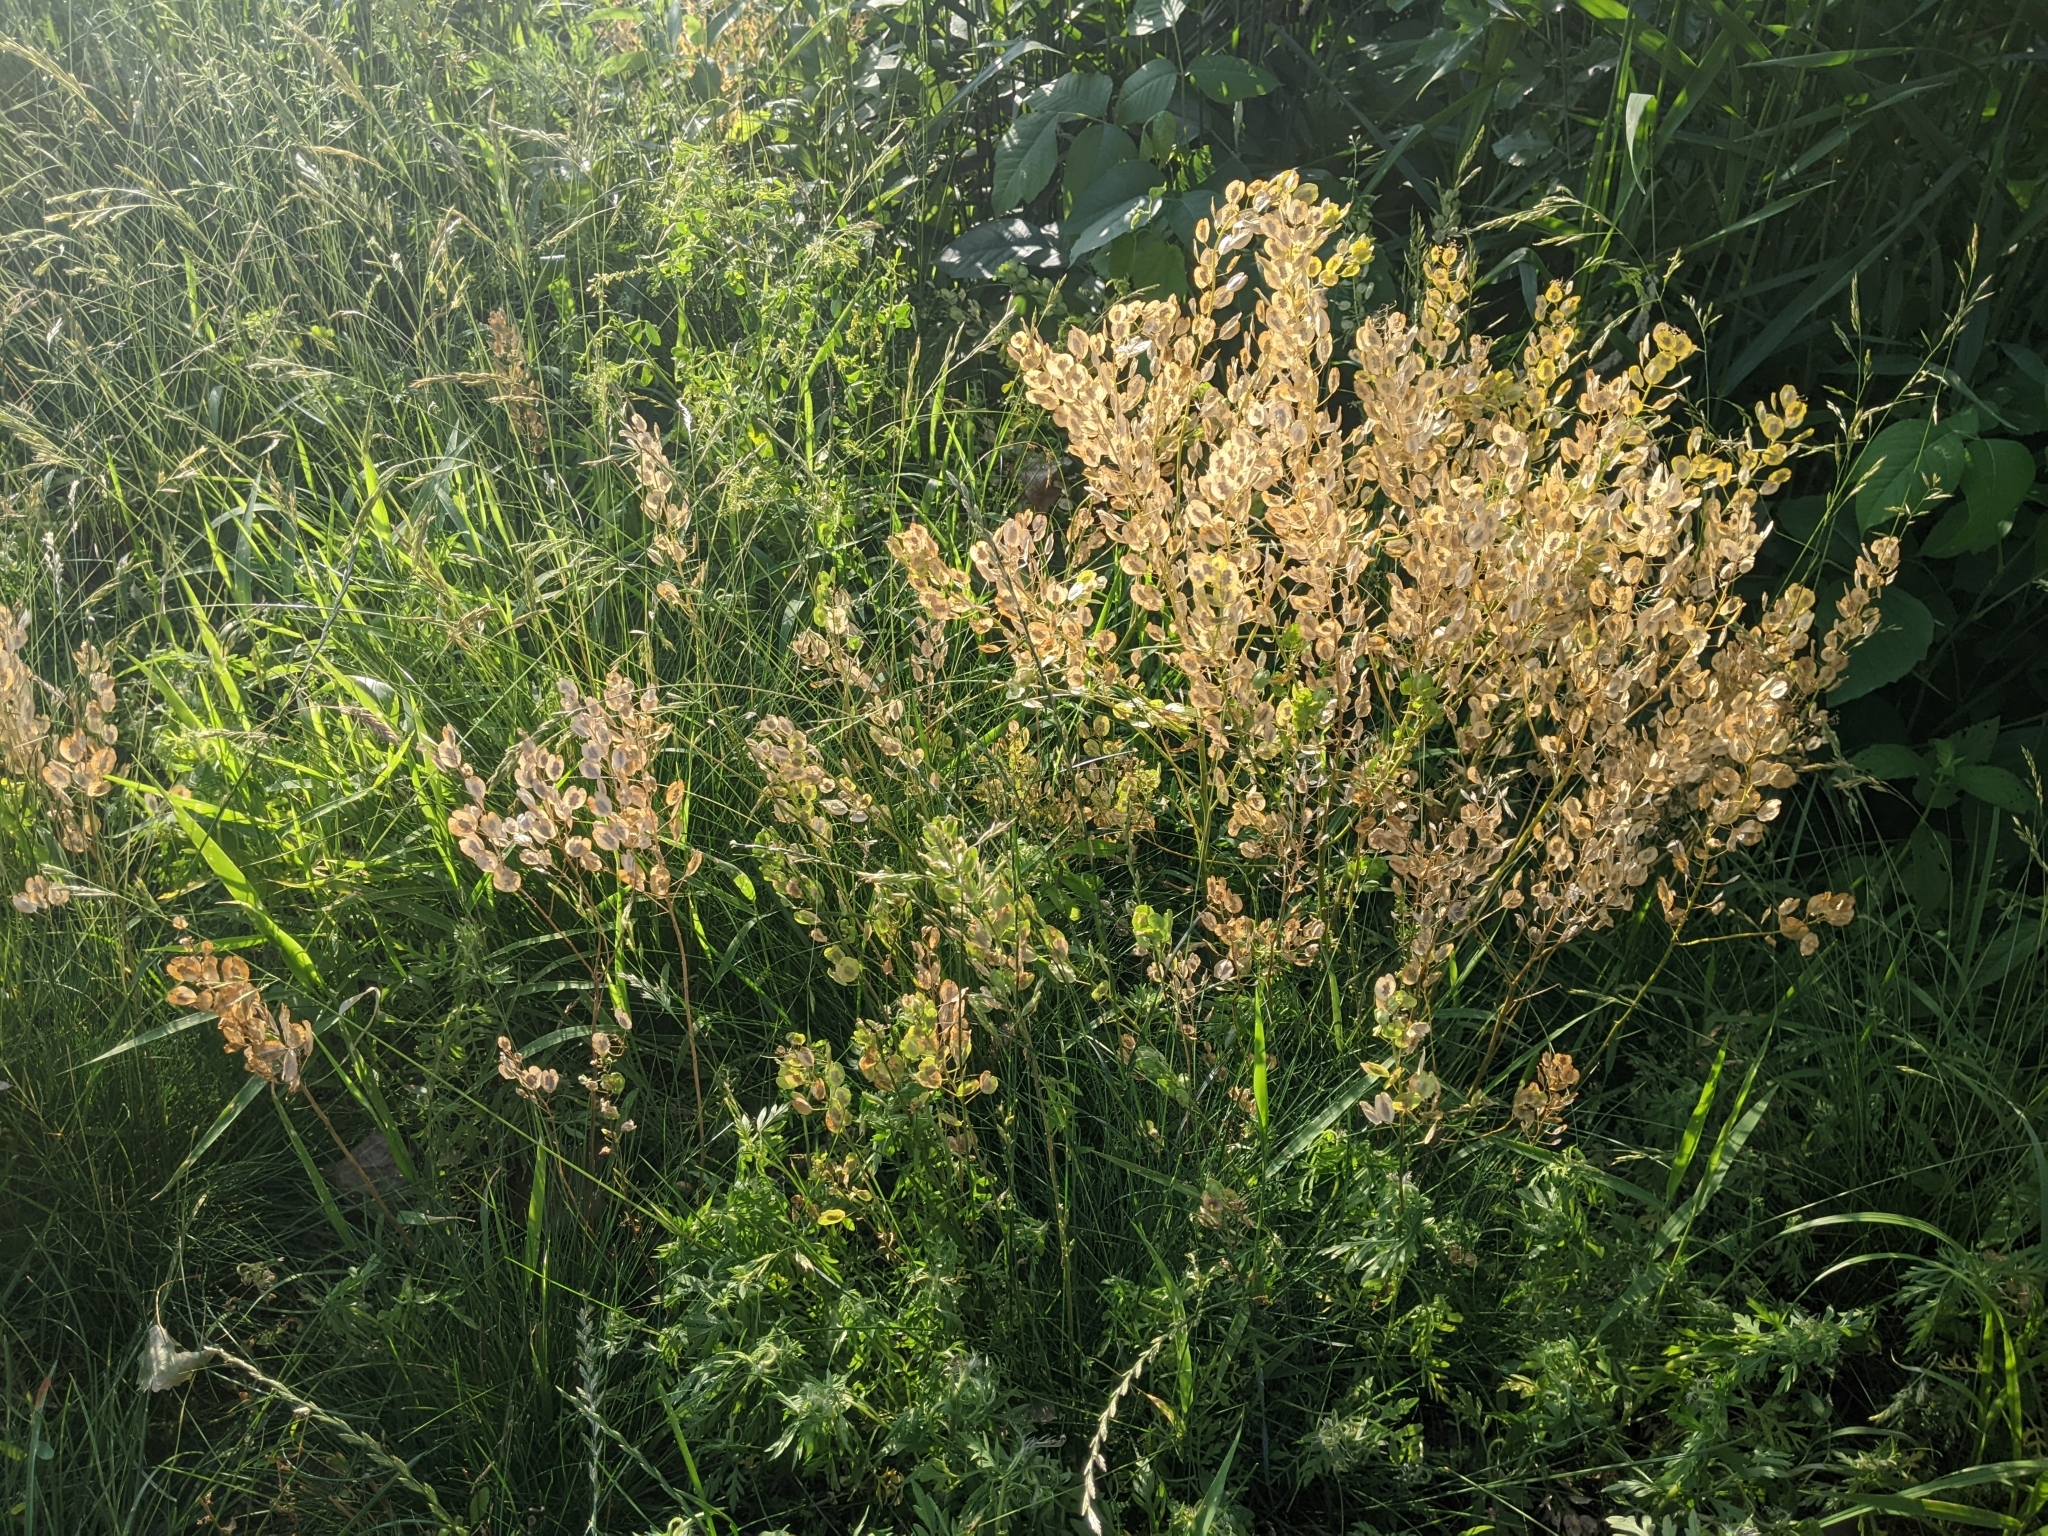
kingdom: Plantae
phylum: Tracheophyta
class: Magnoliopsida
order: Brassicales
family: Brassicaceae
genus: Thlaspi
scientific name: Thlaspi arvense
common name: Field pennycress
